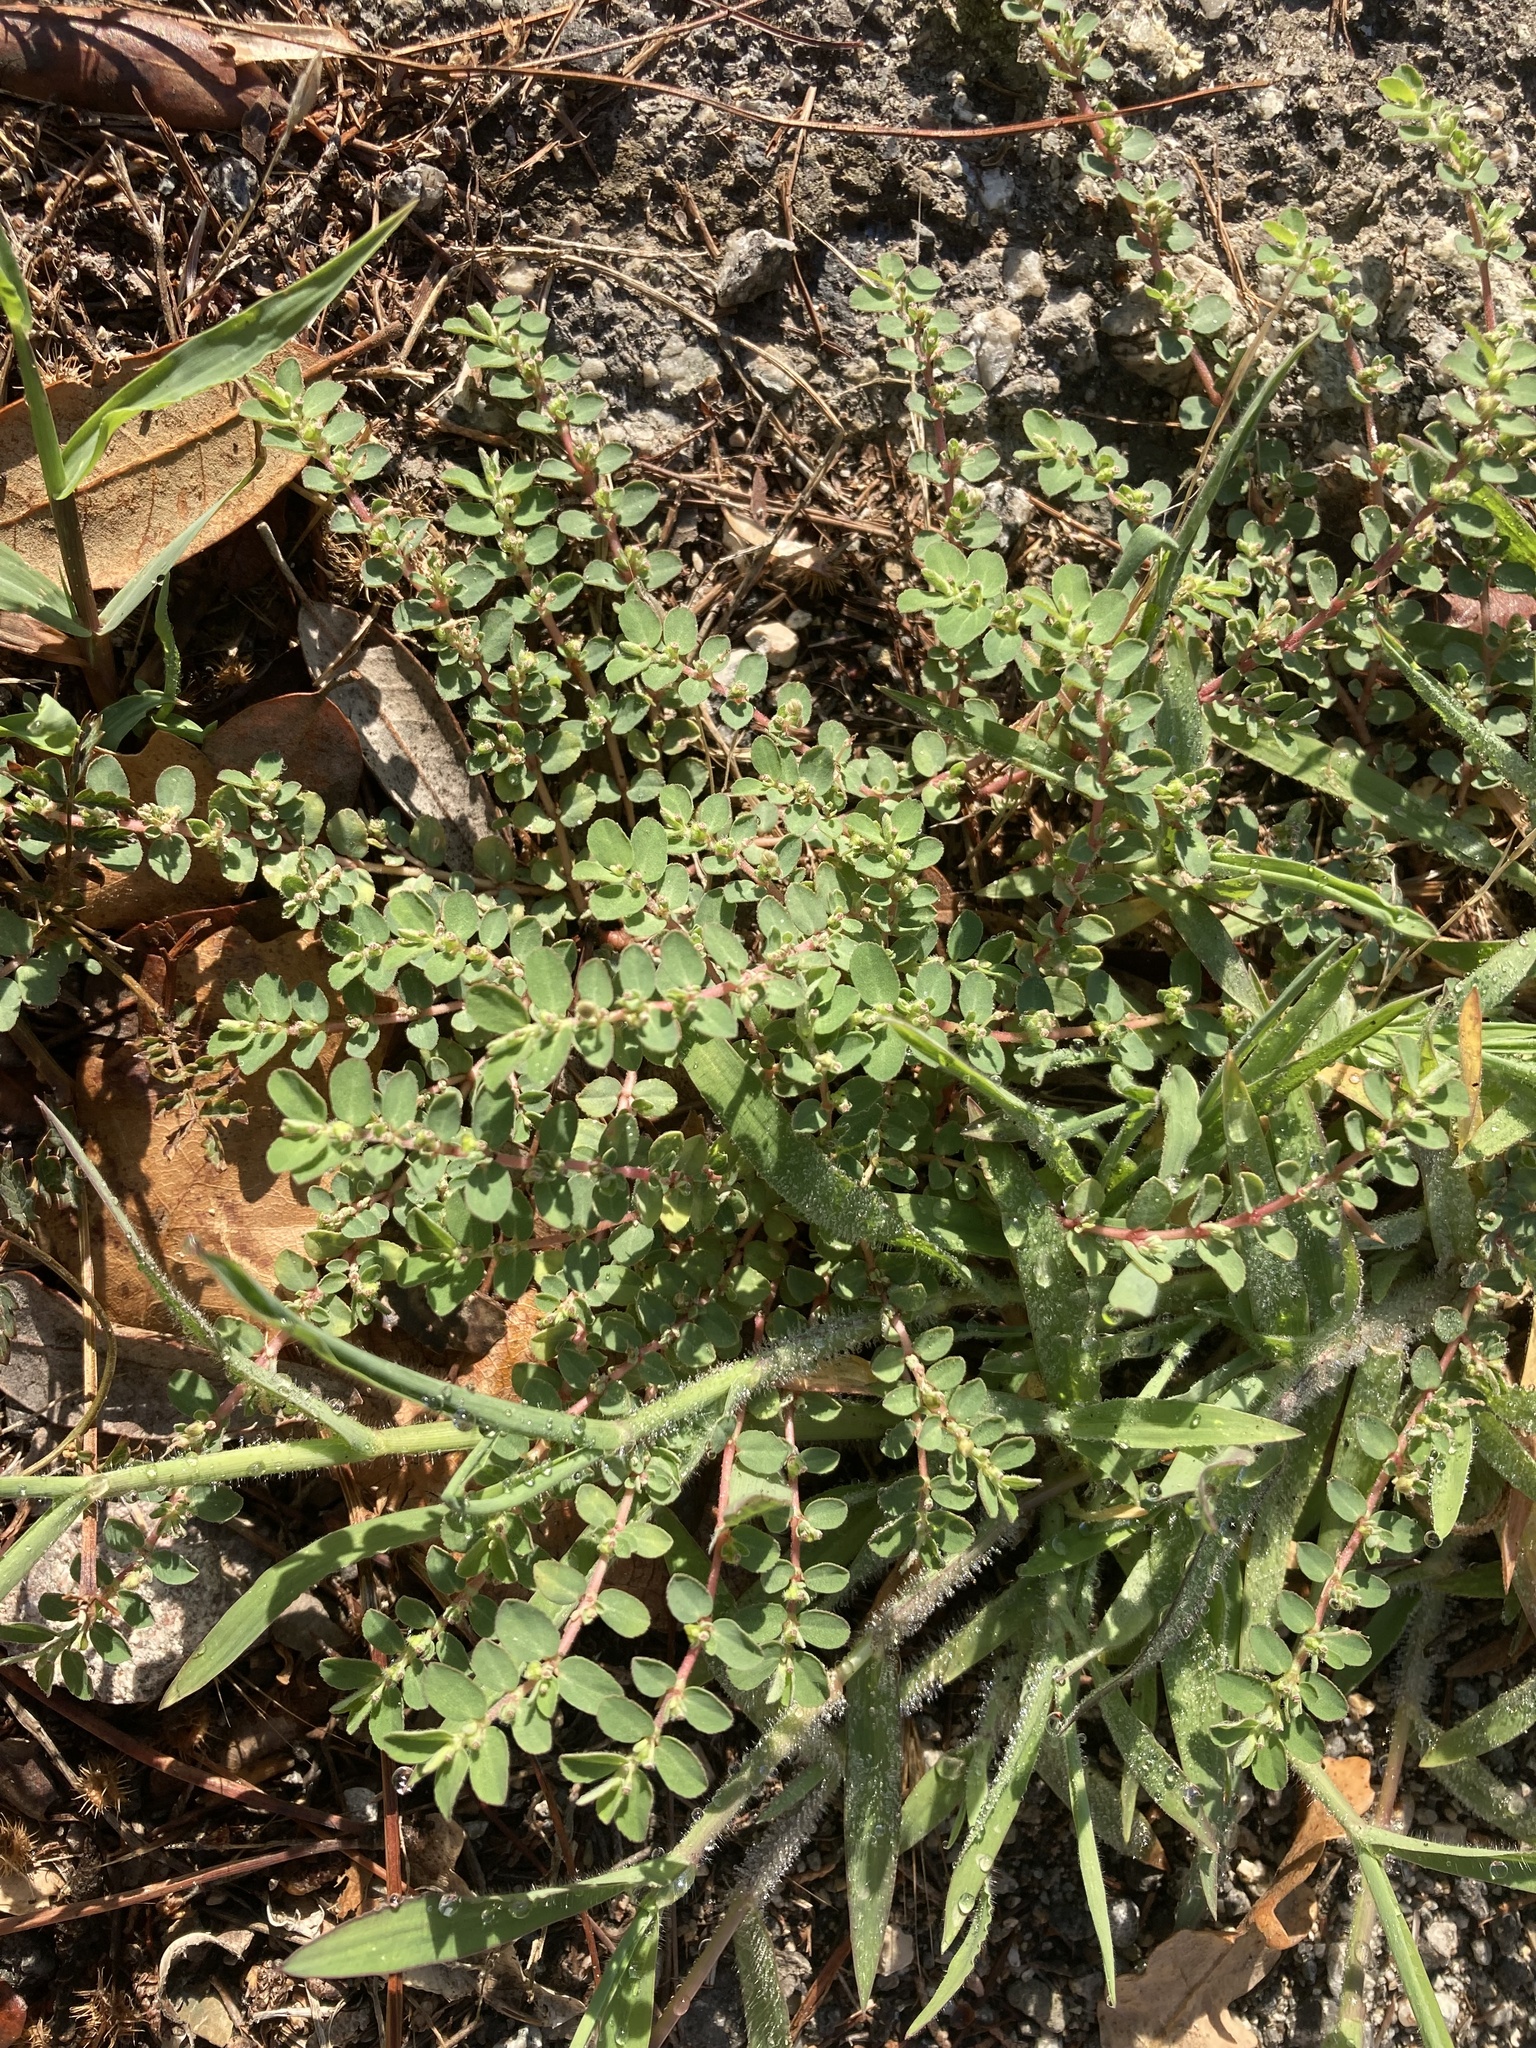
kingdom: Plantae
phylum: Tracheophyta
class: Magnoliopsida
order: Malpighiales
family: Euphorbiaceae
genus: Euphorbia
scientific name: Euphorbia prostrata
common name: Prostrate sandmat
